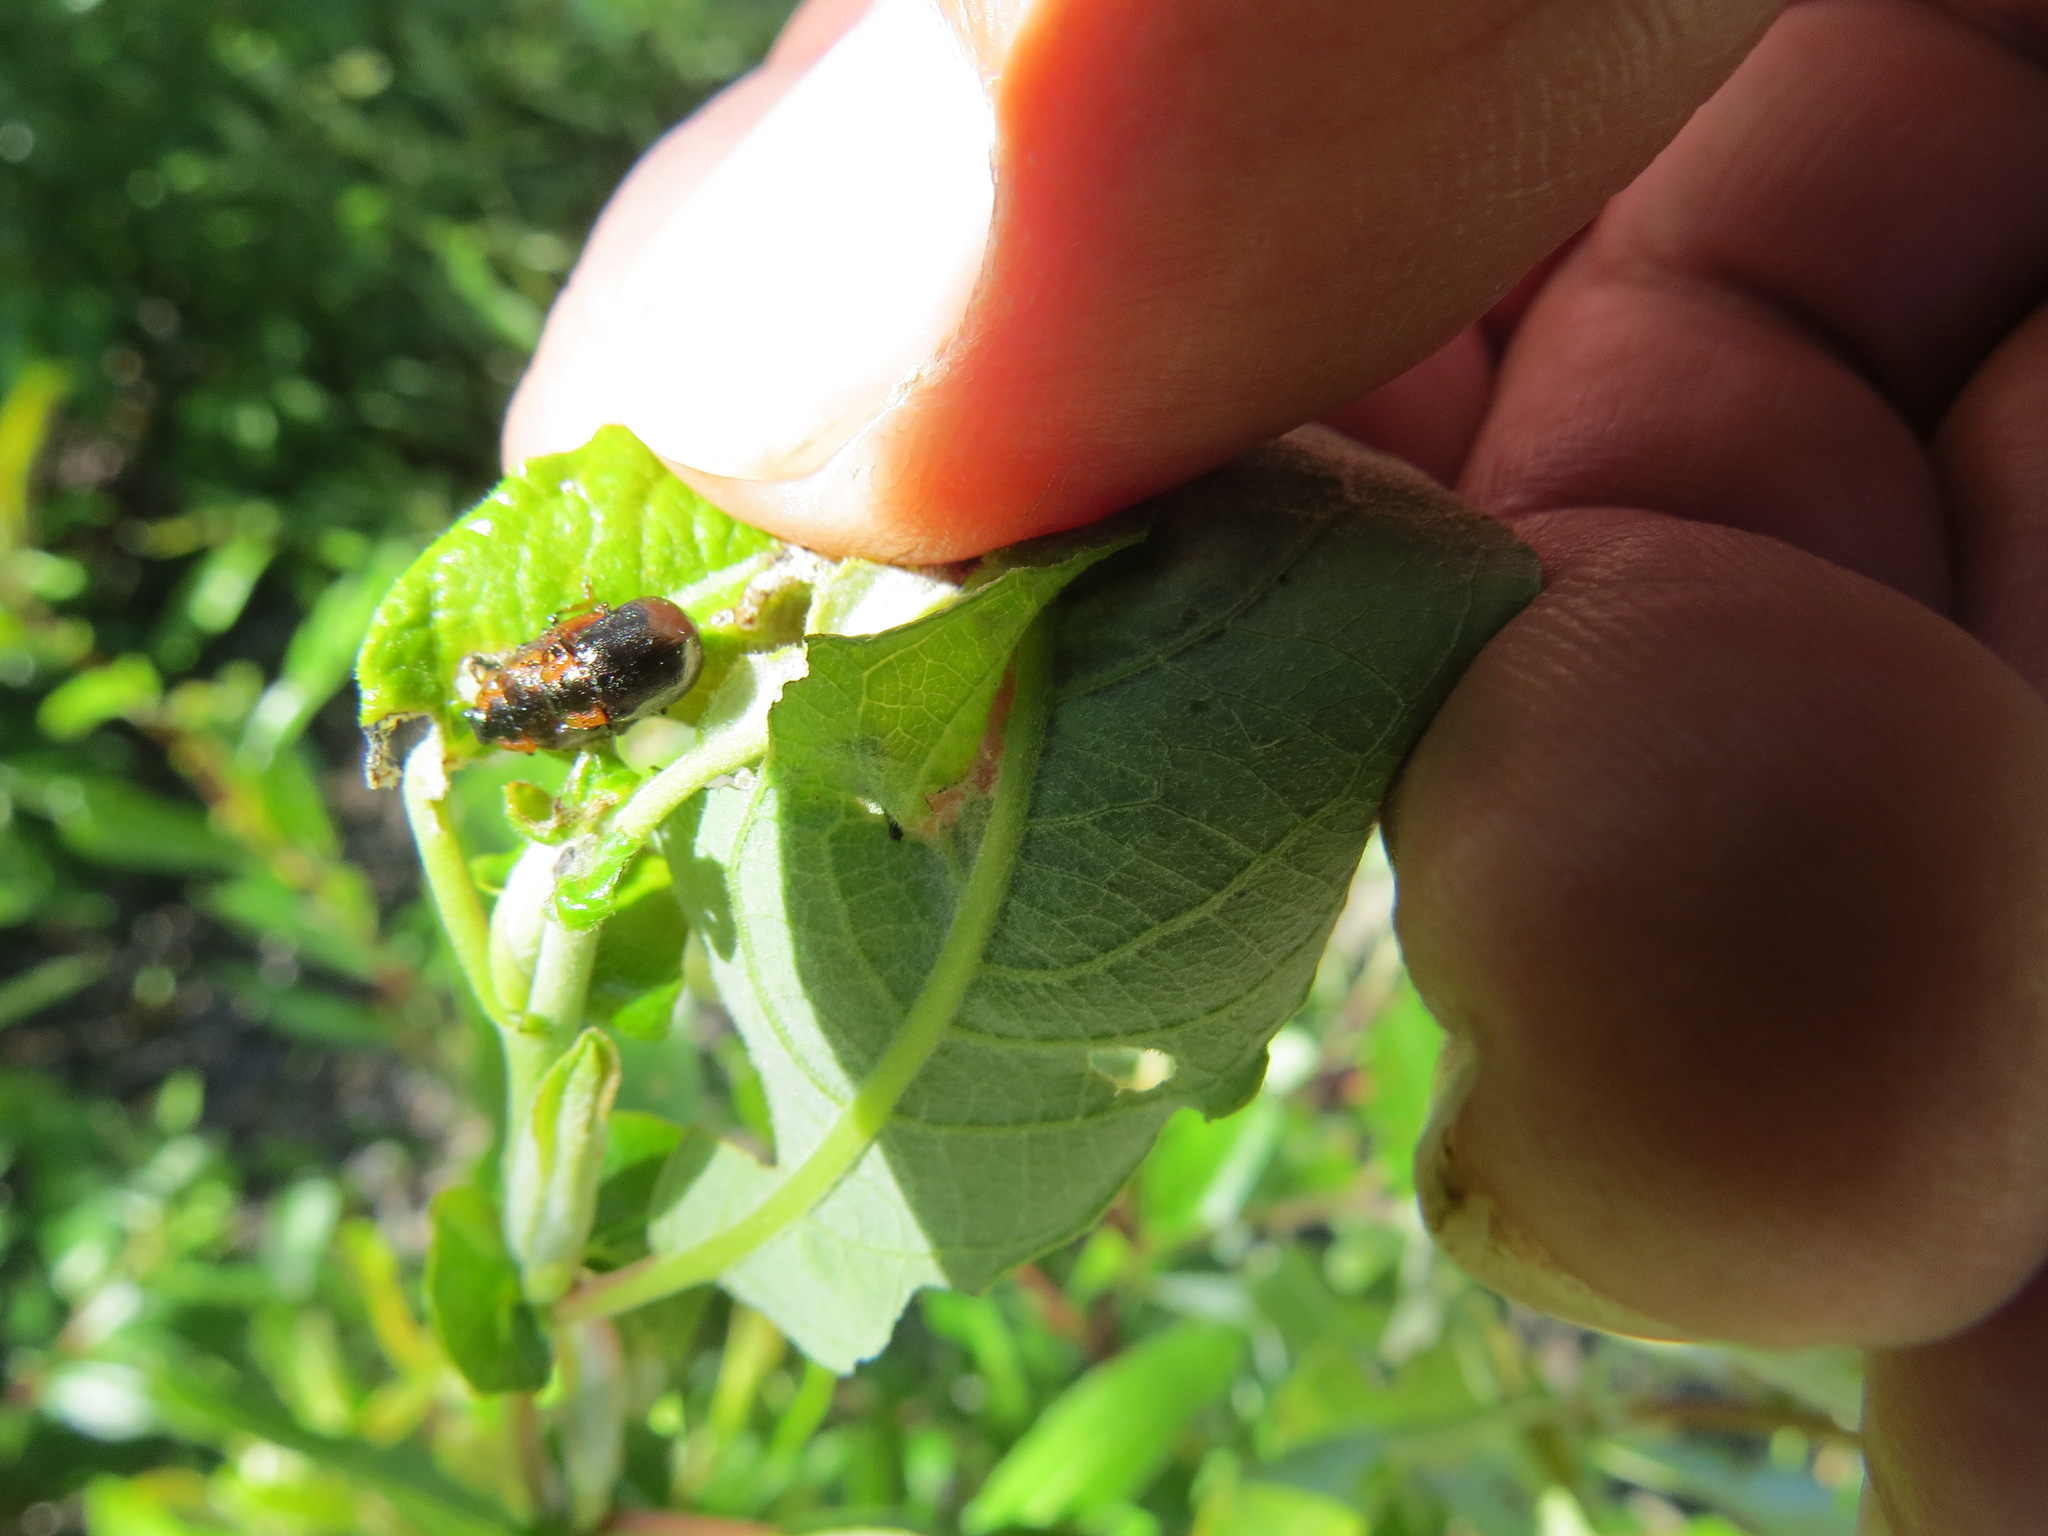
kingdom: Animalia
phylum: Arthropoda
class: Insecta
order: Coleoptera
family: Chrysomelidae
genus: Chrysomela
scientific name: Chrysomela schaefferi
